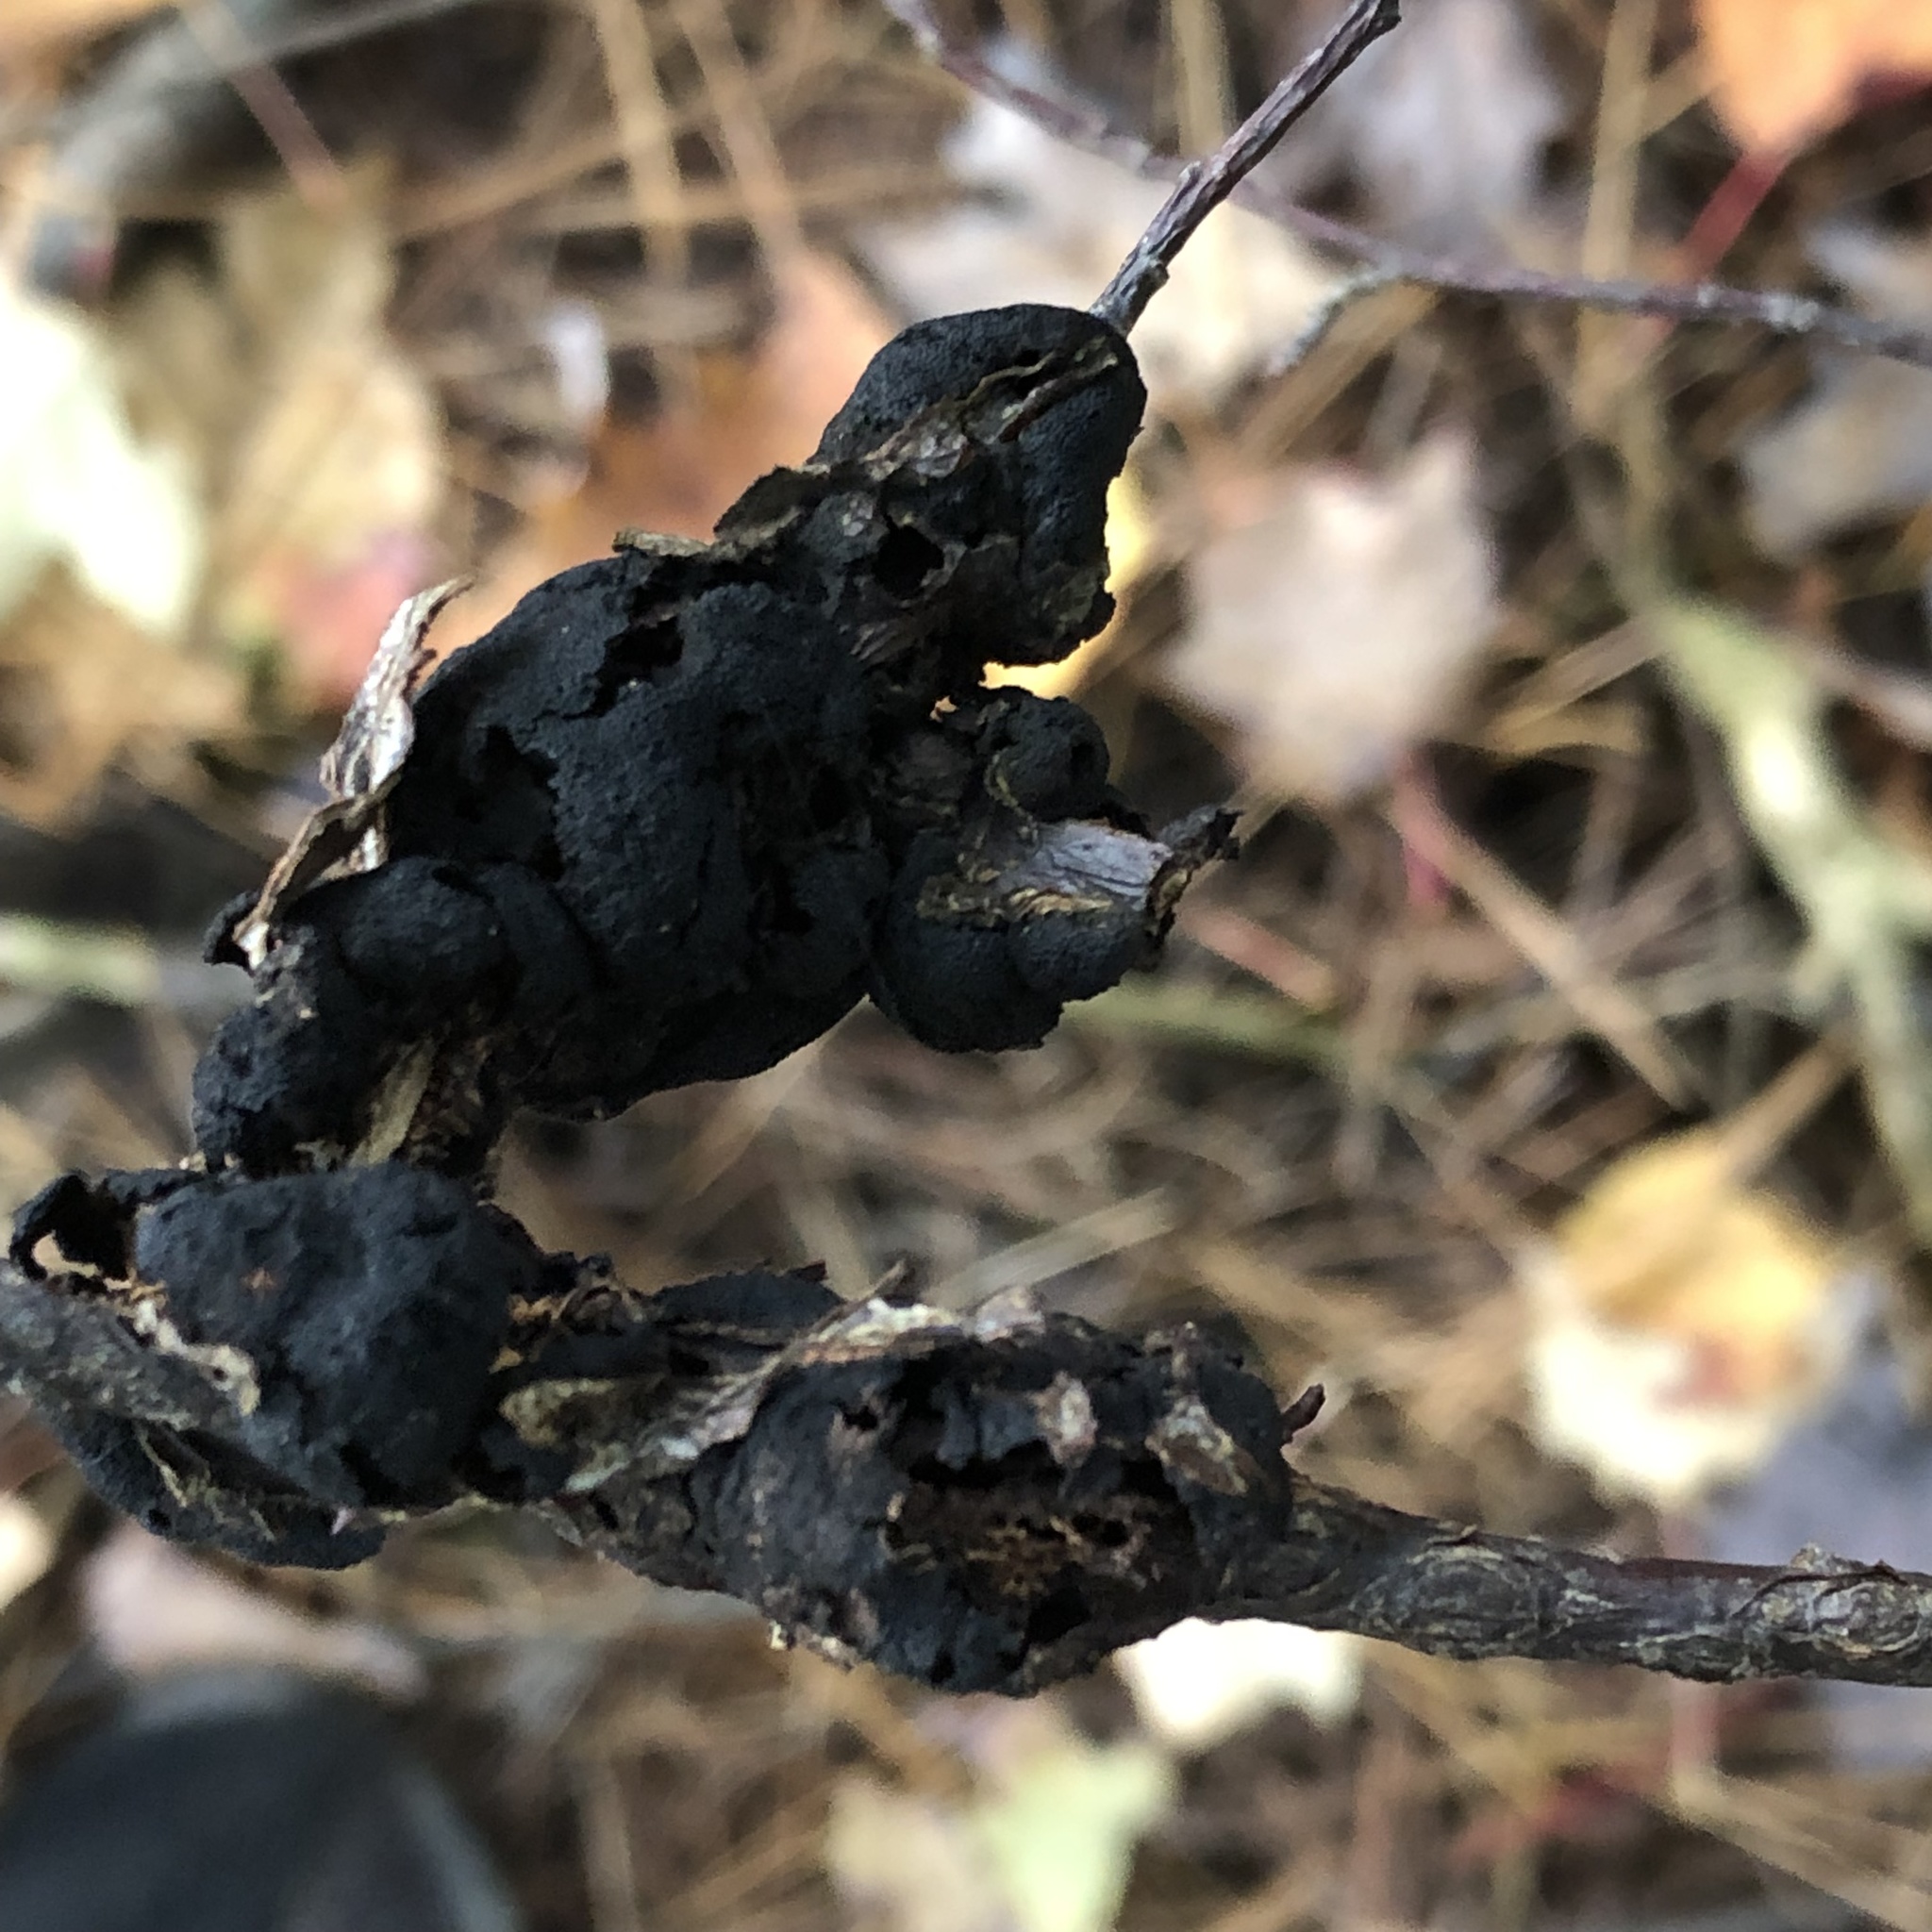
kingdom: Fungi
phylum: Ascomycota
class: Dothideomycetes
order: Venturiales
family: Venturiaceae
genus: Apiosporina
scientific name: Apiosporina morbosa
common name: Black knot
